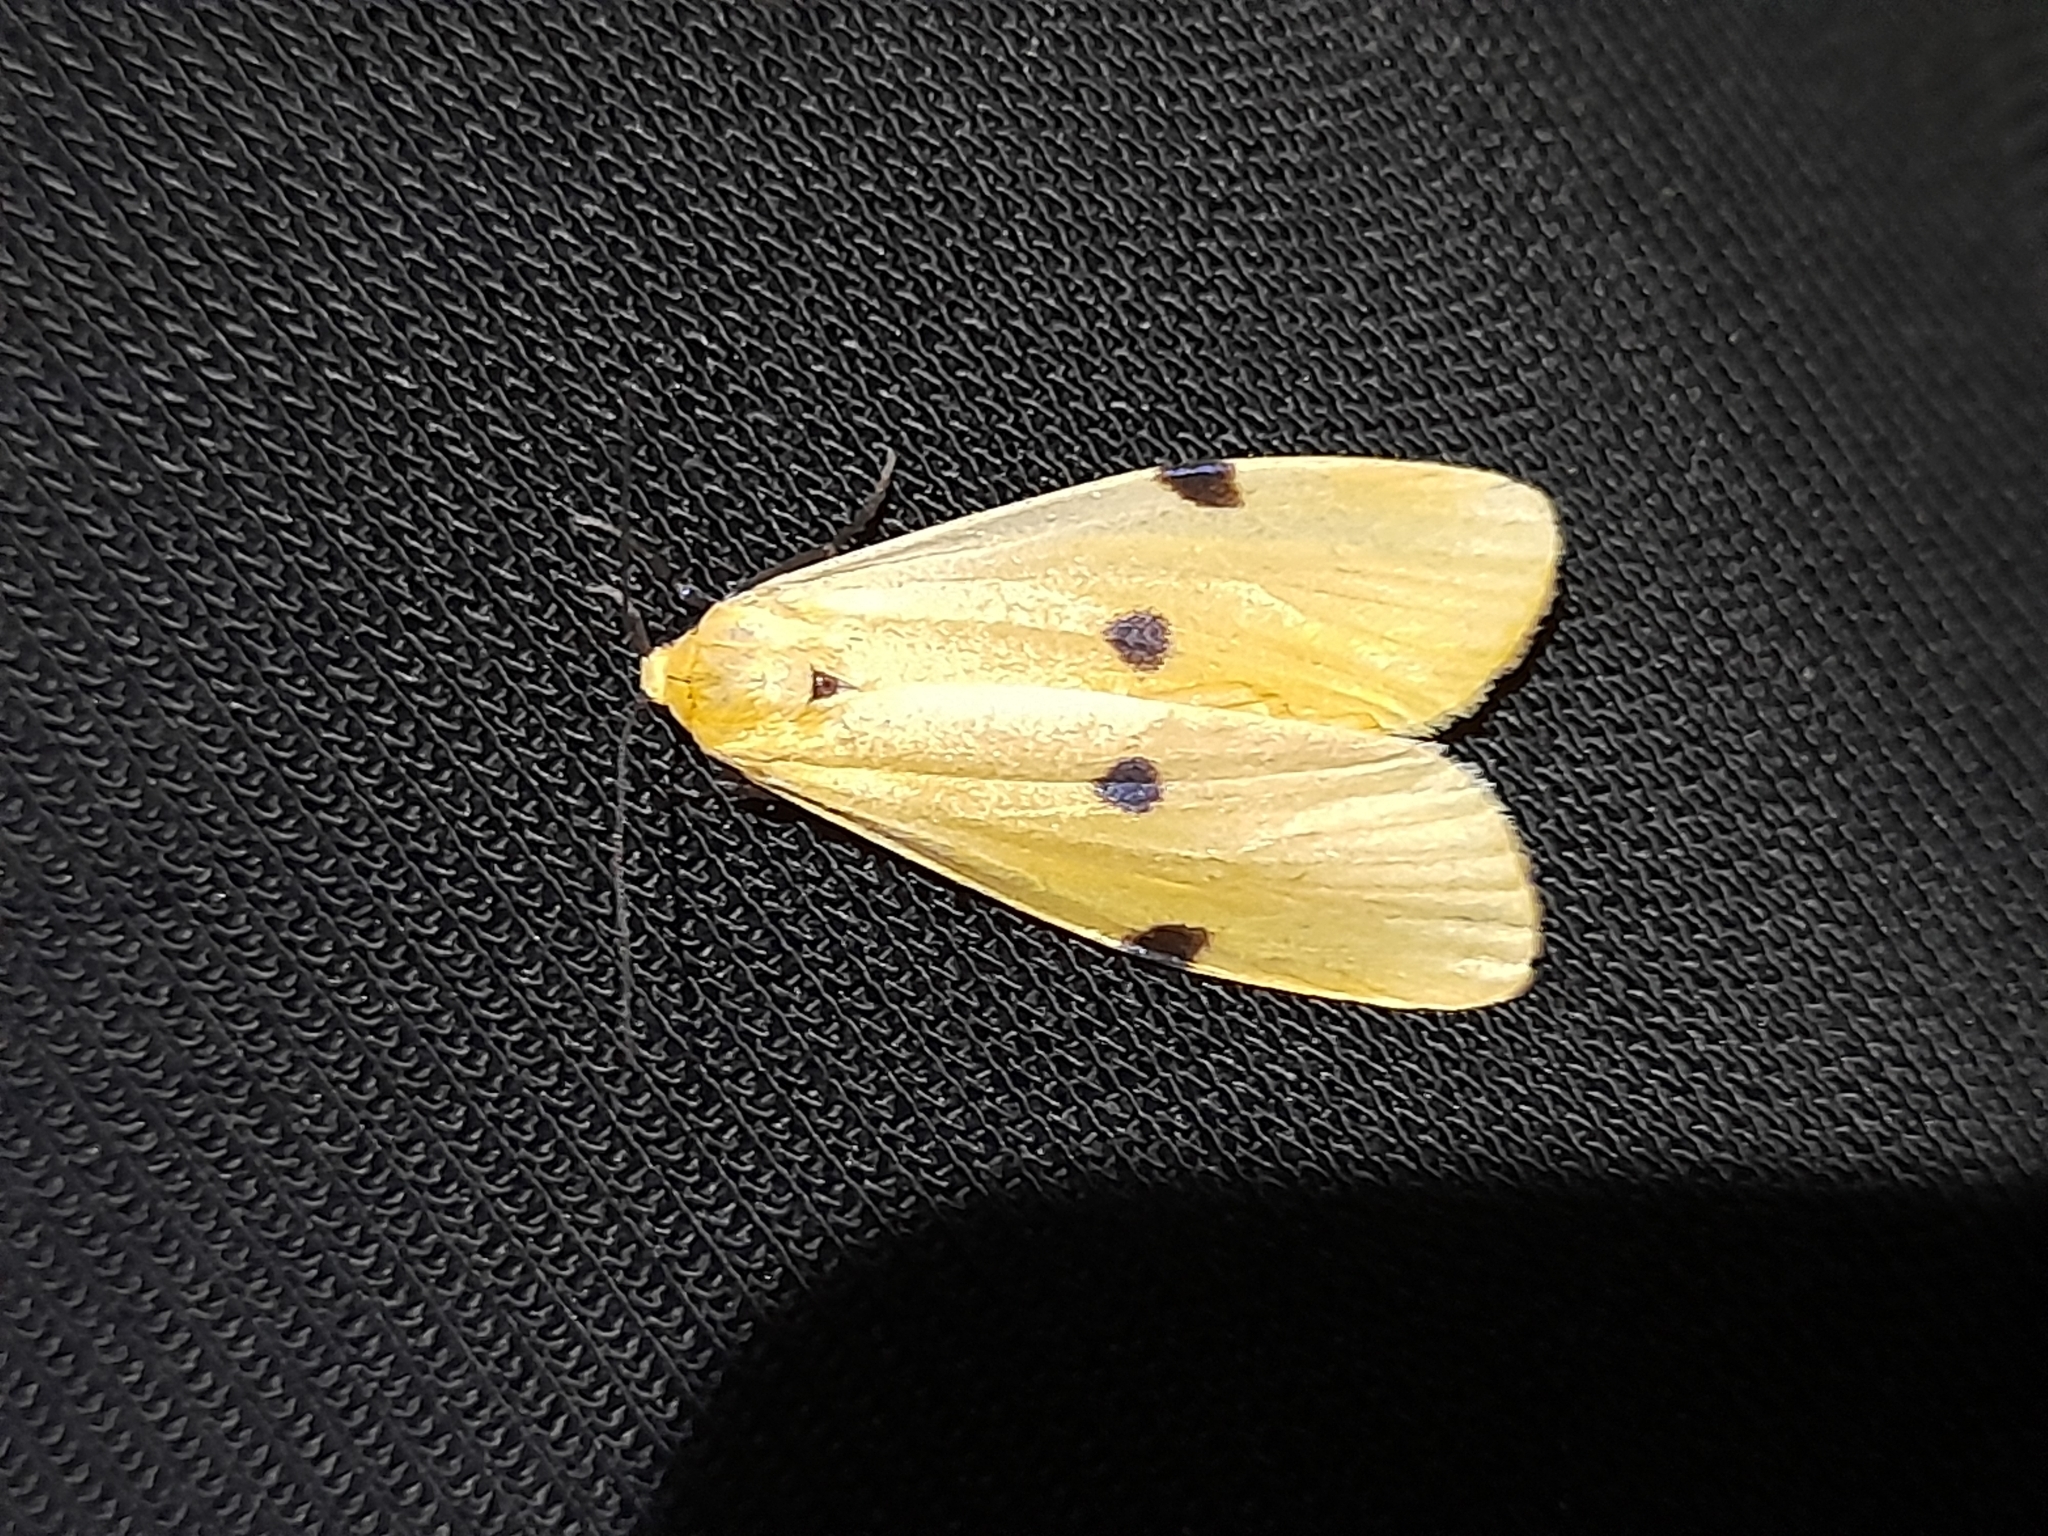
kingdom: Animalia
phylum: Arthropoda
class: Insecta
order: Lepidoptera
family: Erebidae
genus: Lithosia
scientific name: Lithosia quadra
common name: Four-spotted footman
